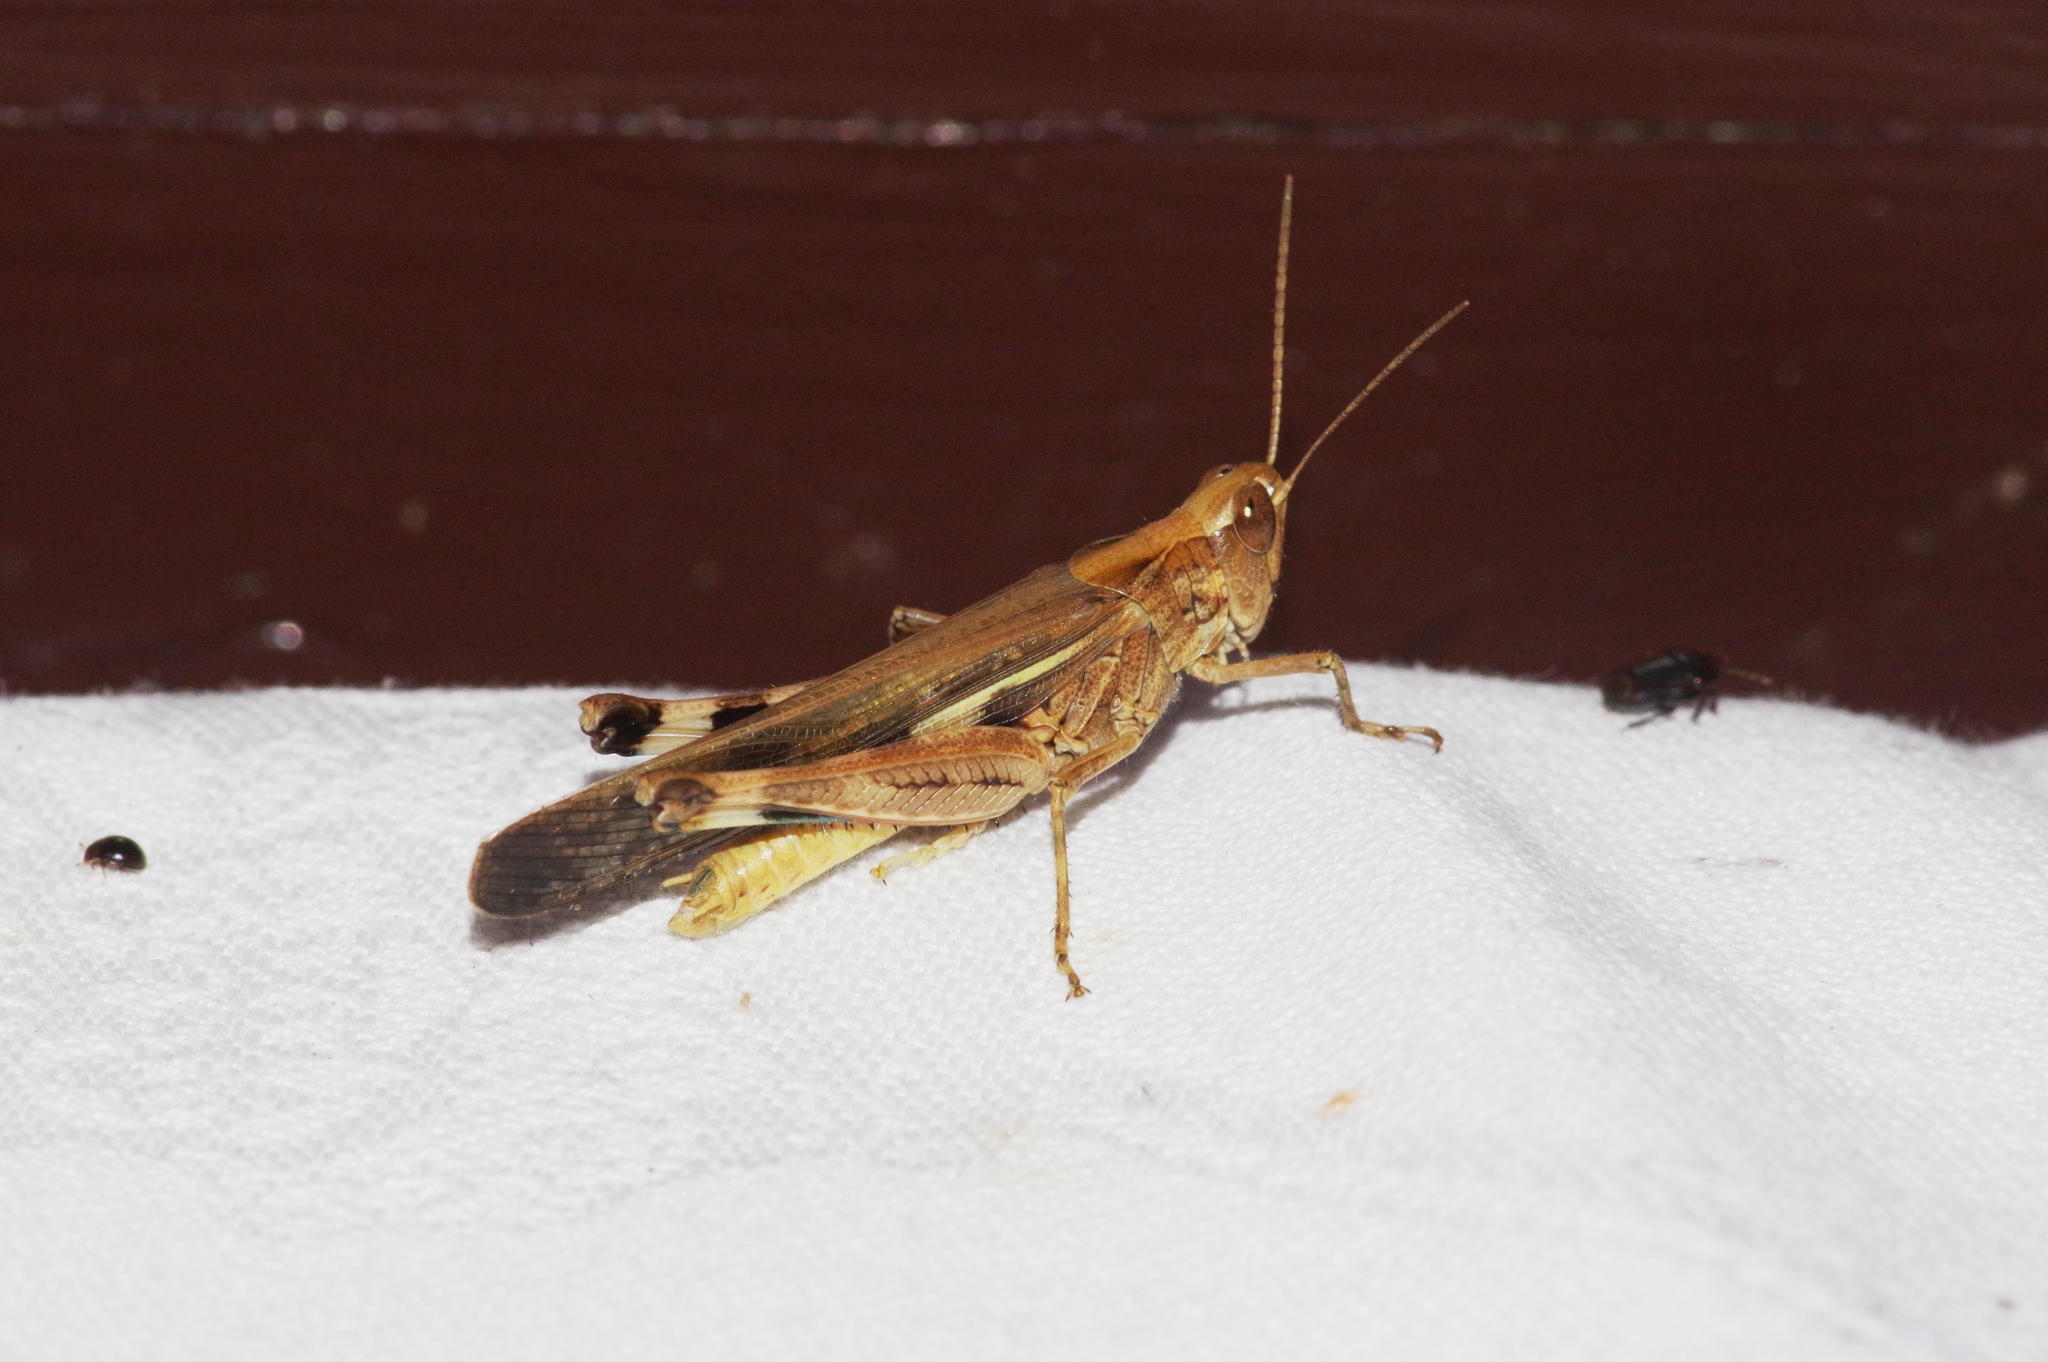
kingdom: Animalia
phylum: Arthropoda
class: Insecta
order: Orthoptera
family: Acrididae
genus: Aiolopus
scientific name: Aiolopus thalassinus
